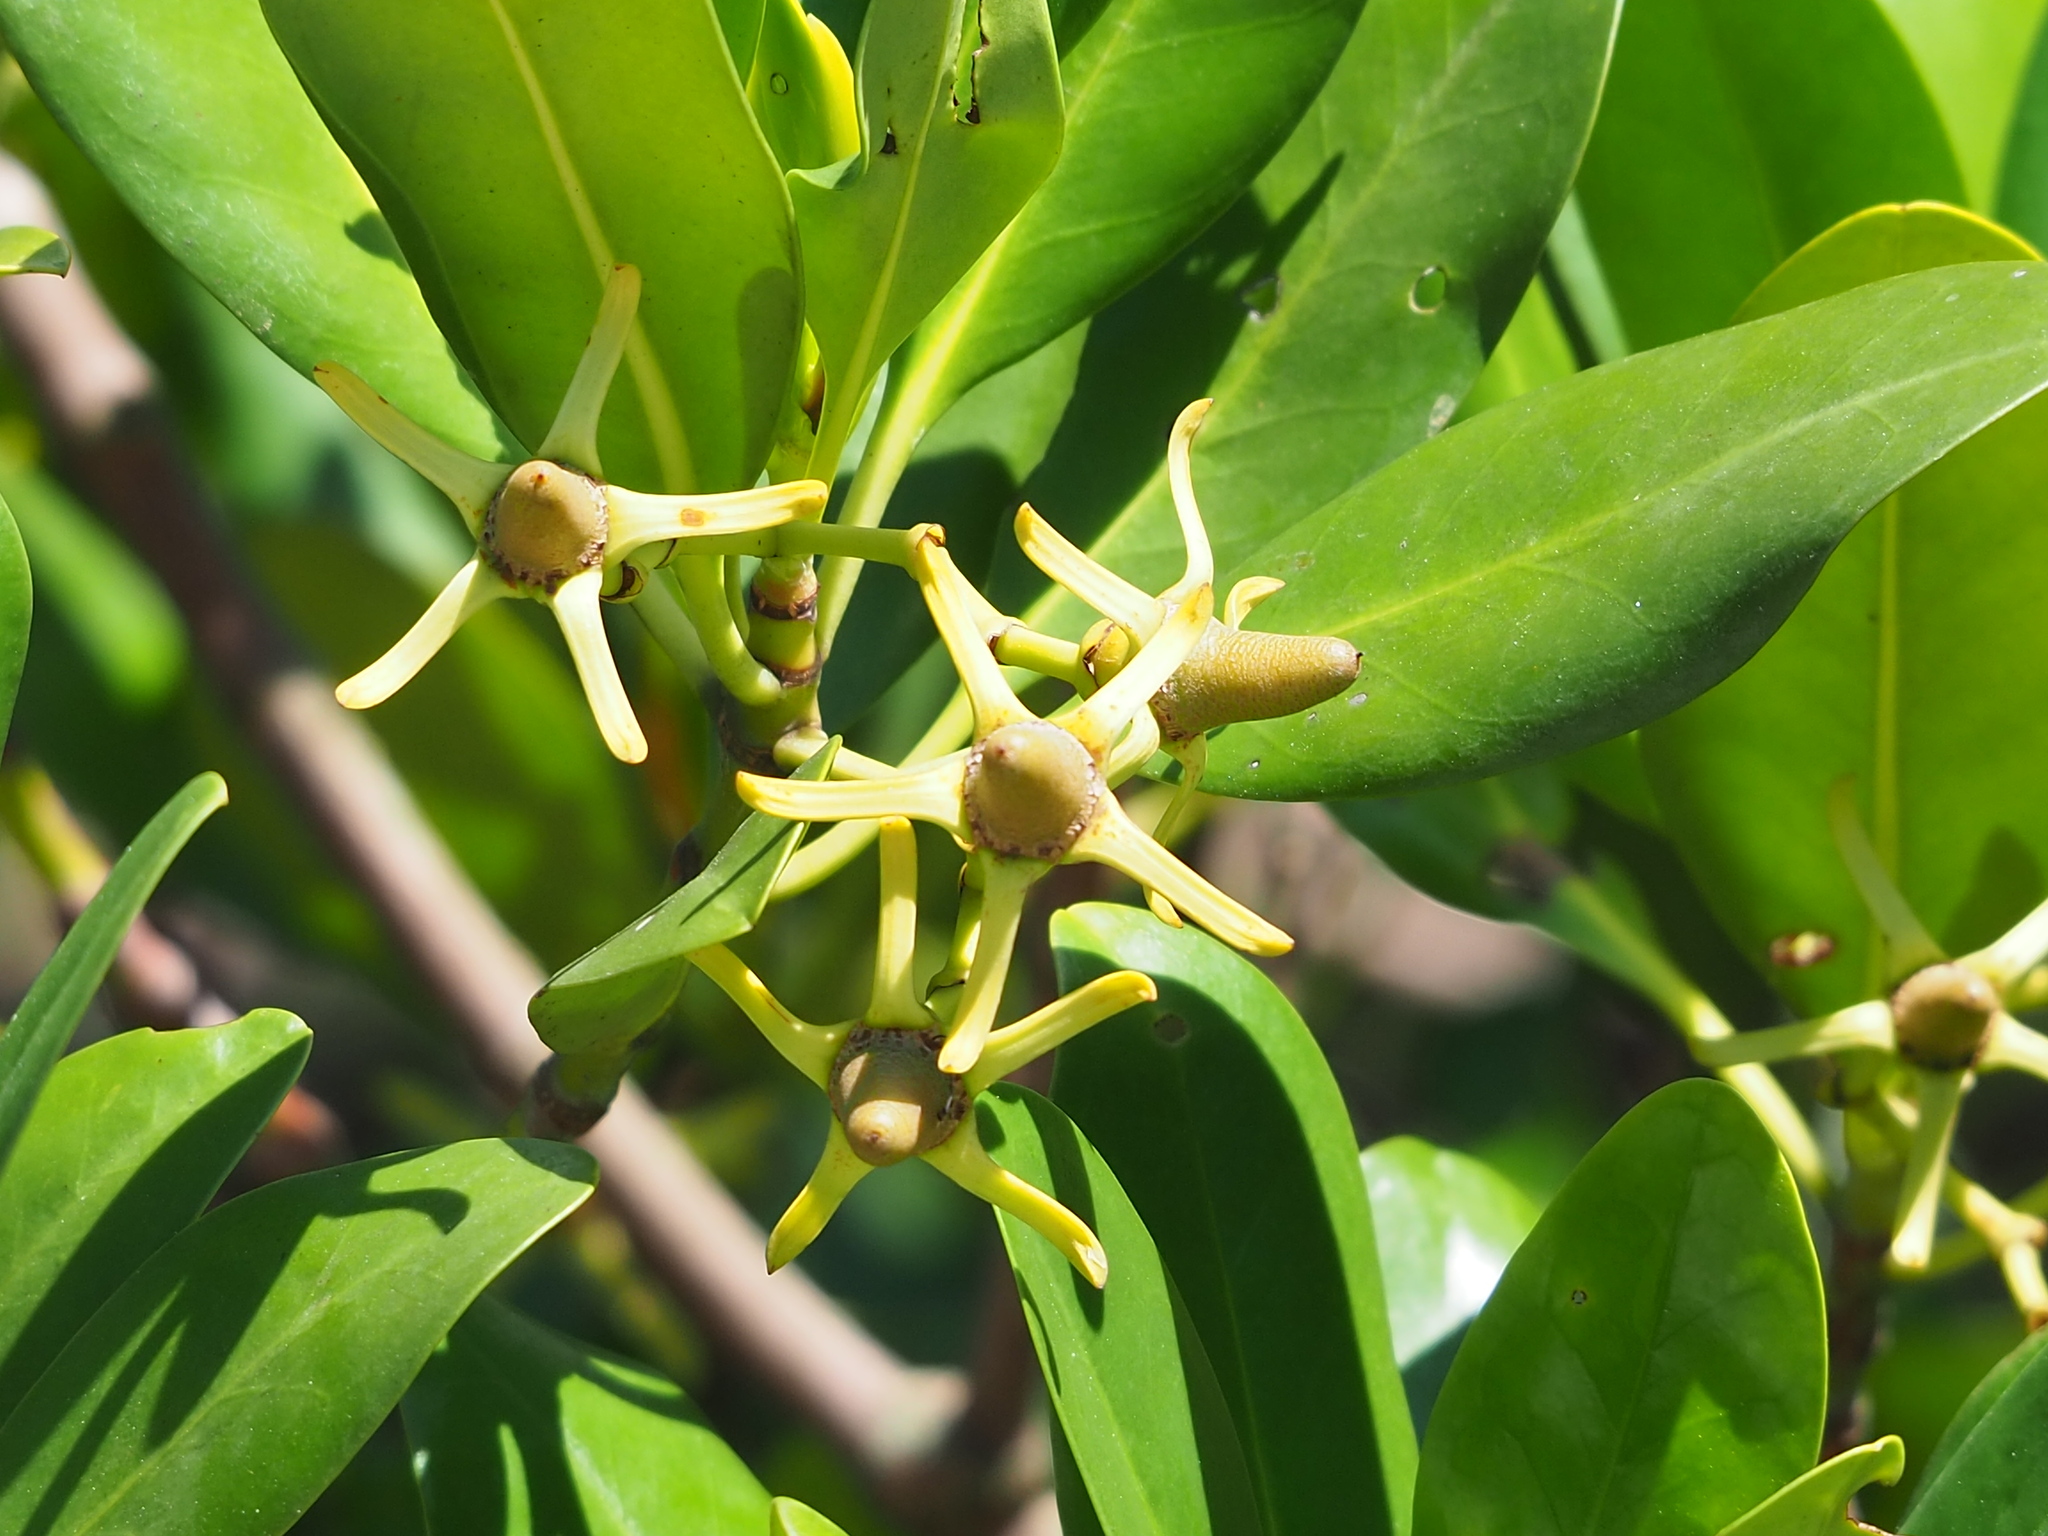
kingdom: Plantae
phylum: Tracheophyta
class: Magnoliopsida
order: Malpighiales
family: Rhizophoraceae
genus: Kandelia
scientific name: Kandelia obovata
